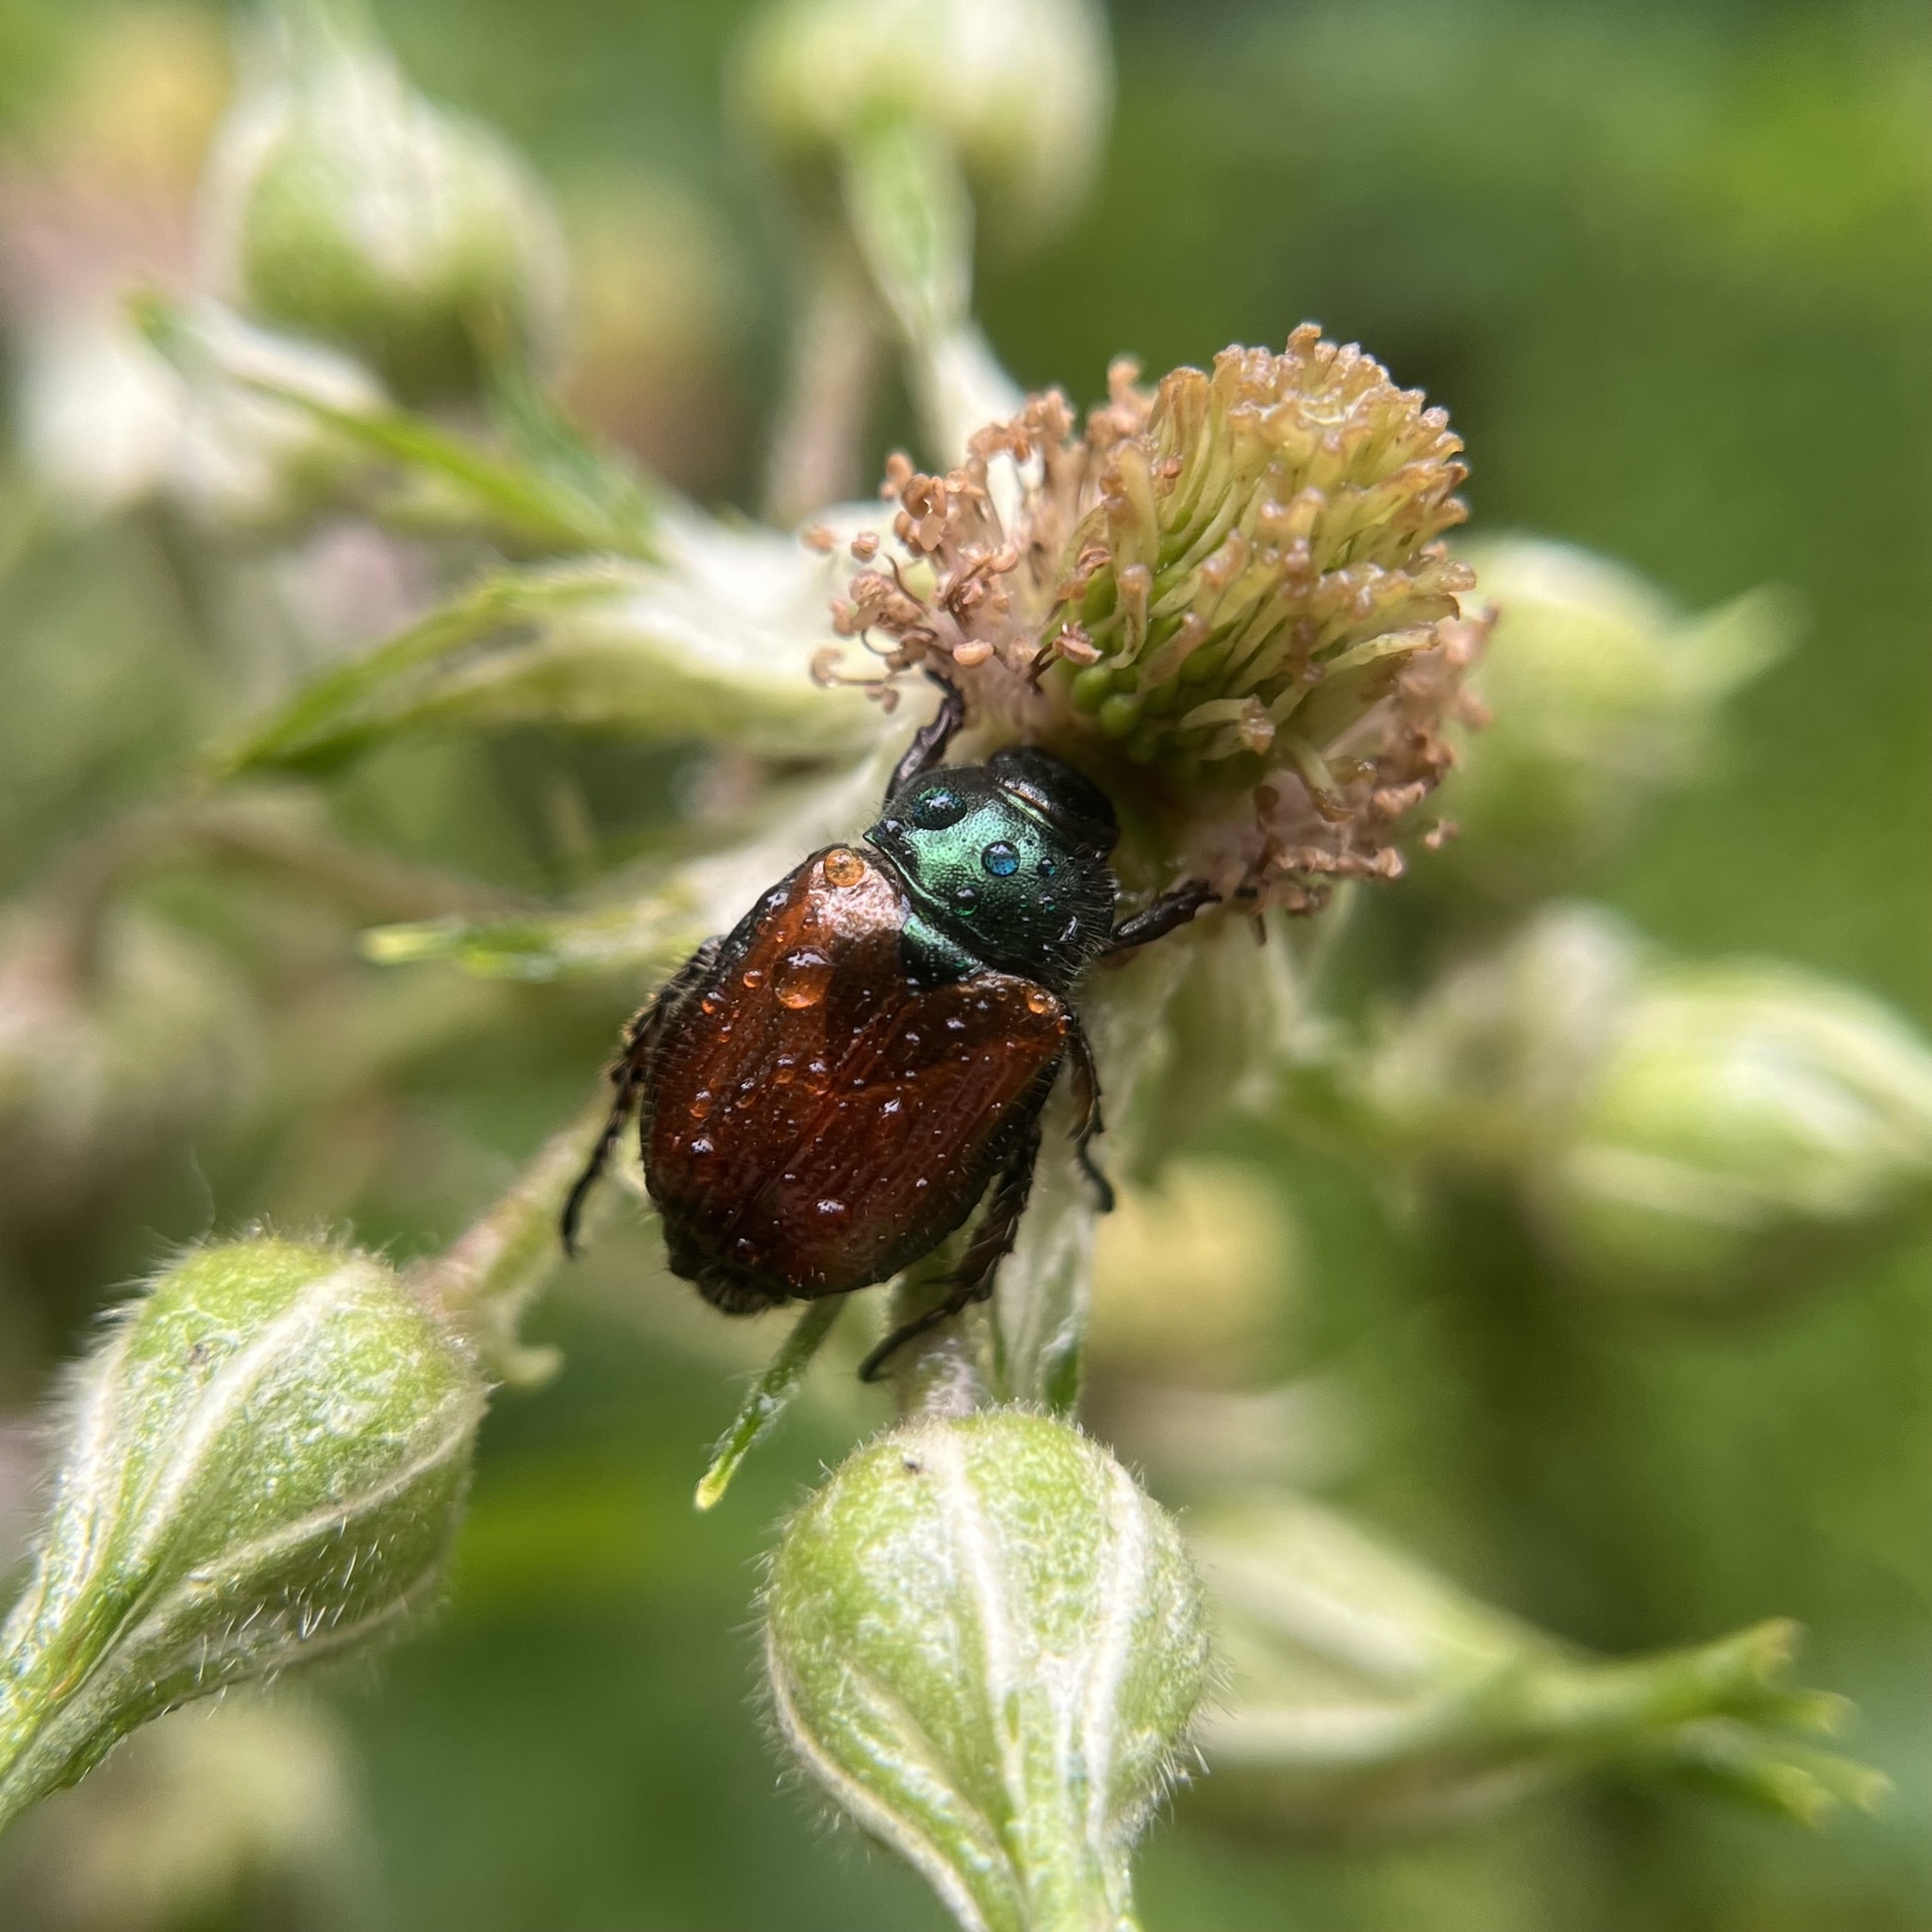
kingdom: Animalia
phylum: Arthropoda
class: Insecta
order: Coleoptera
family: Scarabaeidae
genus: Phyllopertha
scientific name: Phyllopertha horticola
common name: Garden chafer
